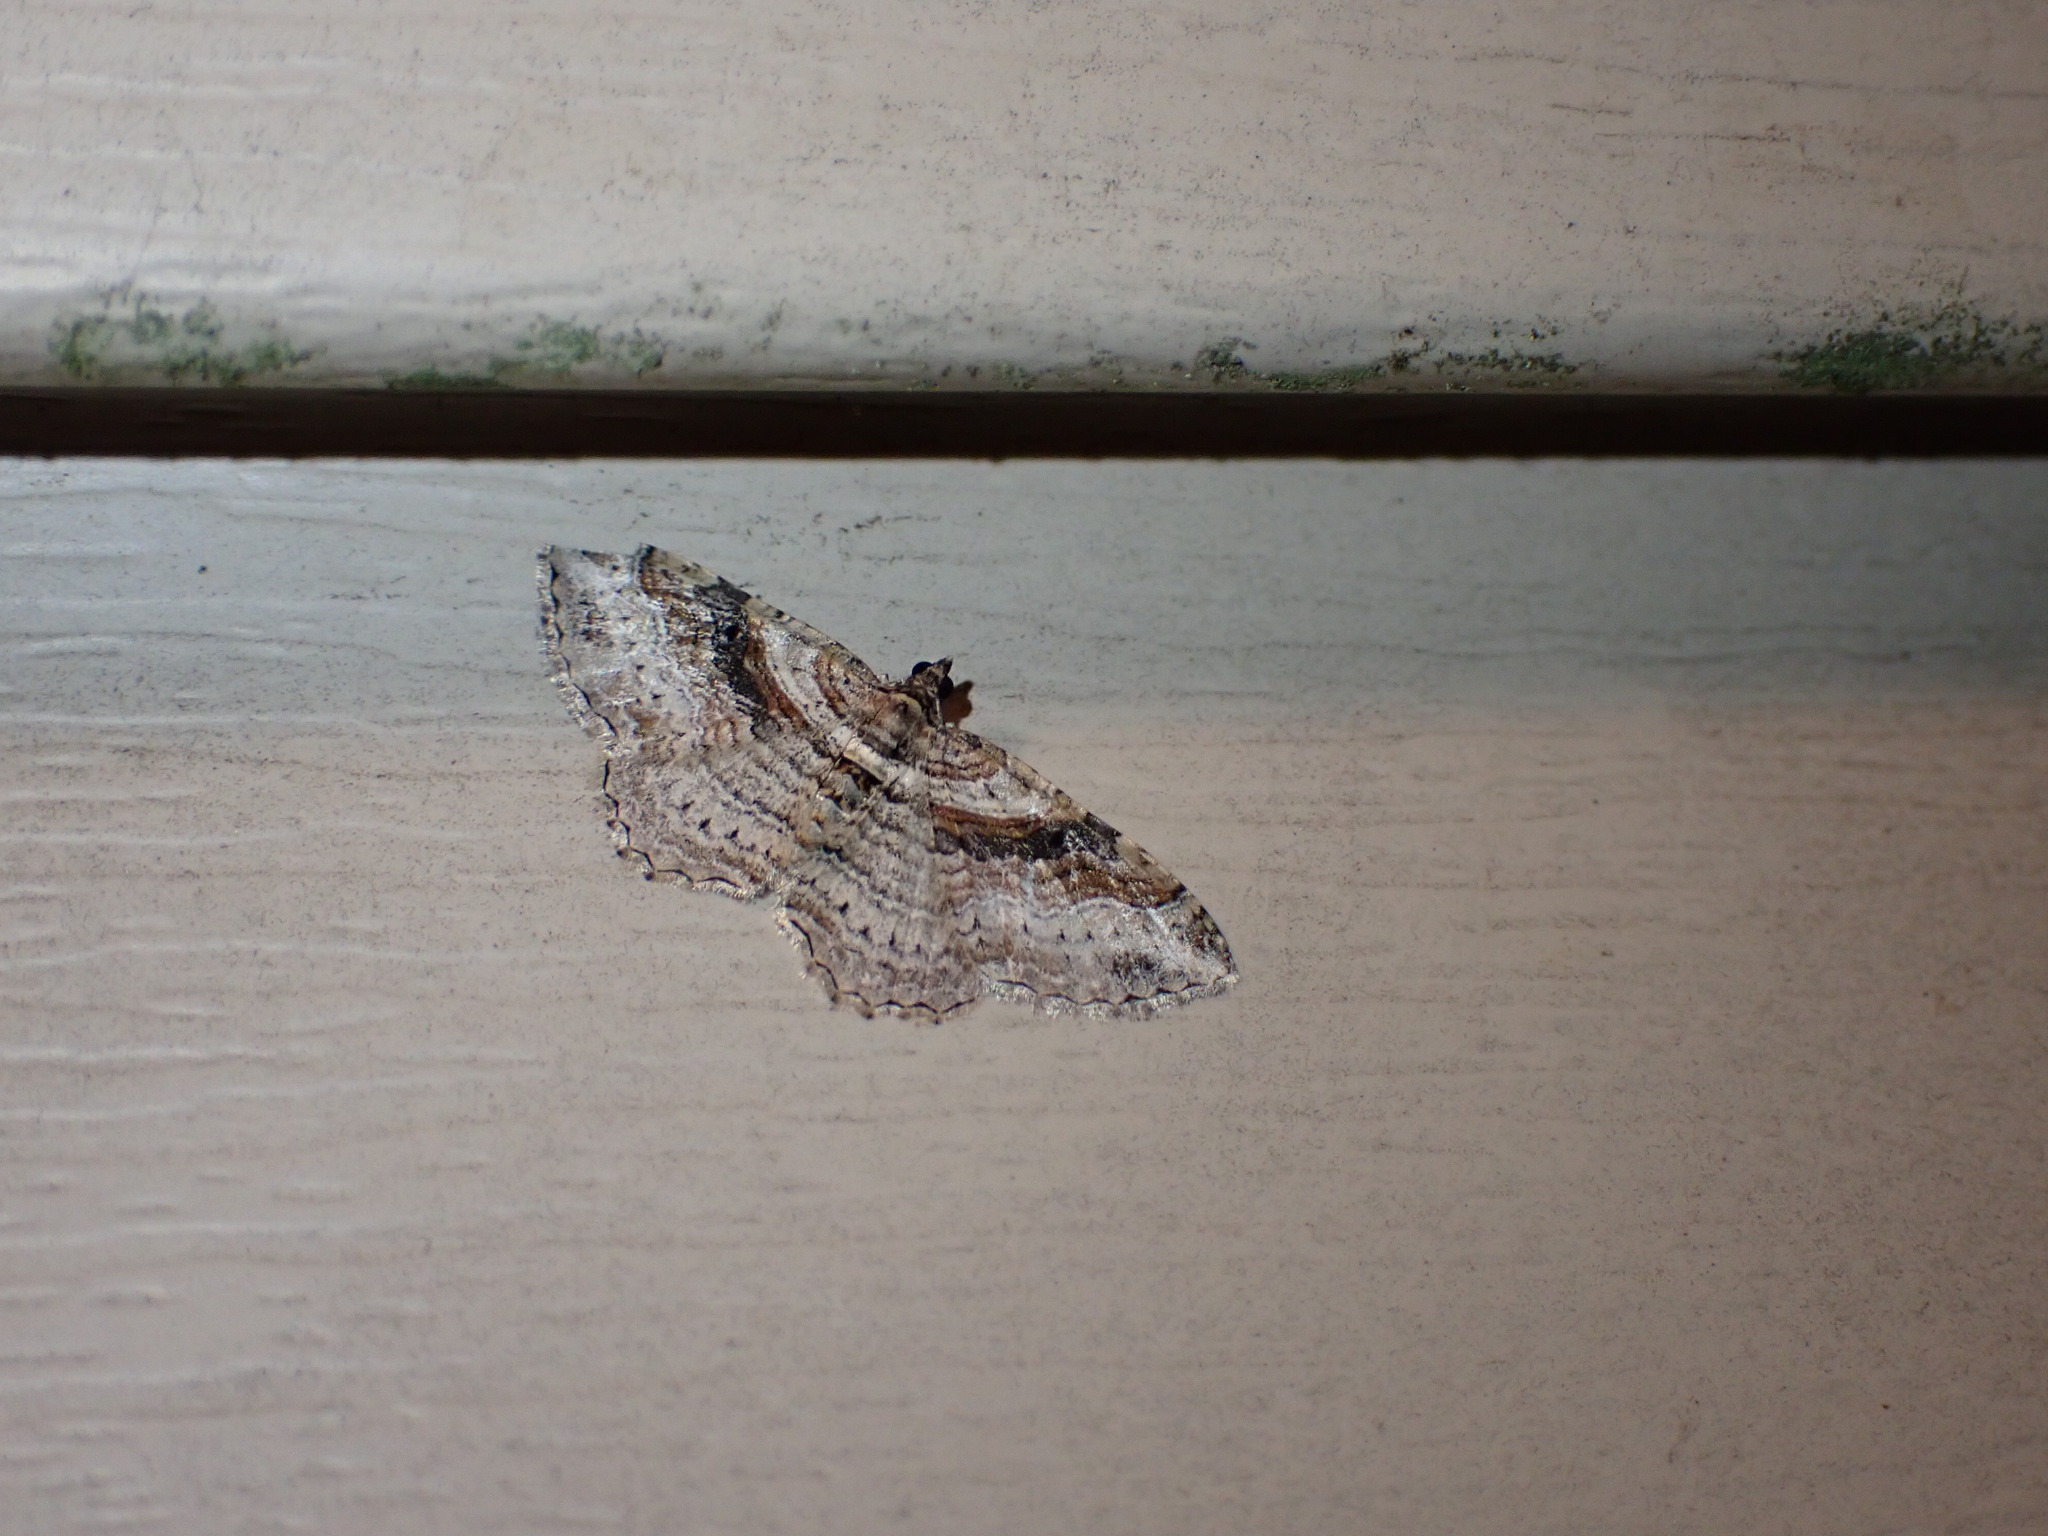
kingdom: Animalia
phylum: Arthropoda
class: Insecta
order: Lepidoptera
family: Geometridae
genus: Costaconvexa
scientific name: Costaconvexa centrostrigaria
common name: Bent-line carpet
